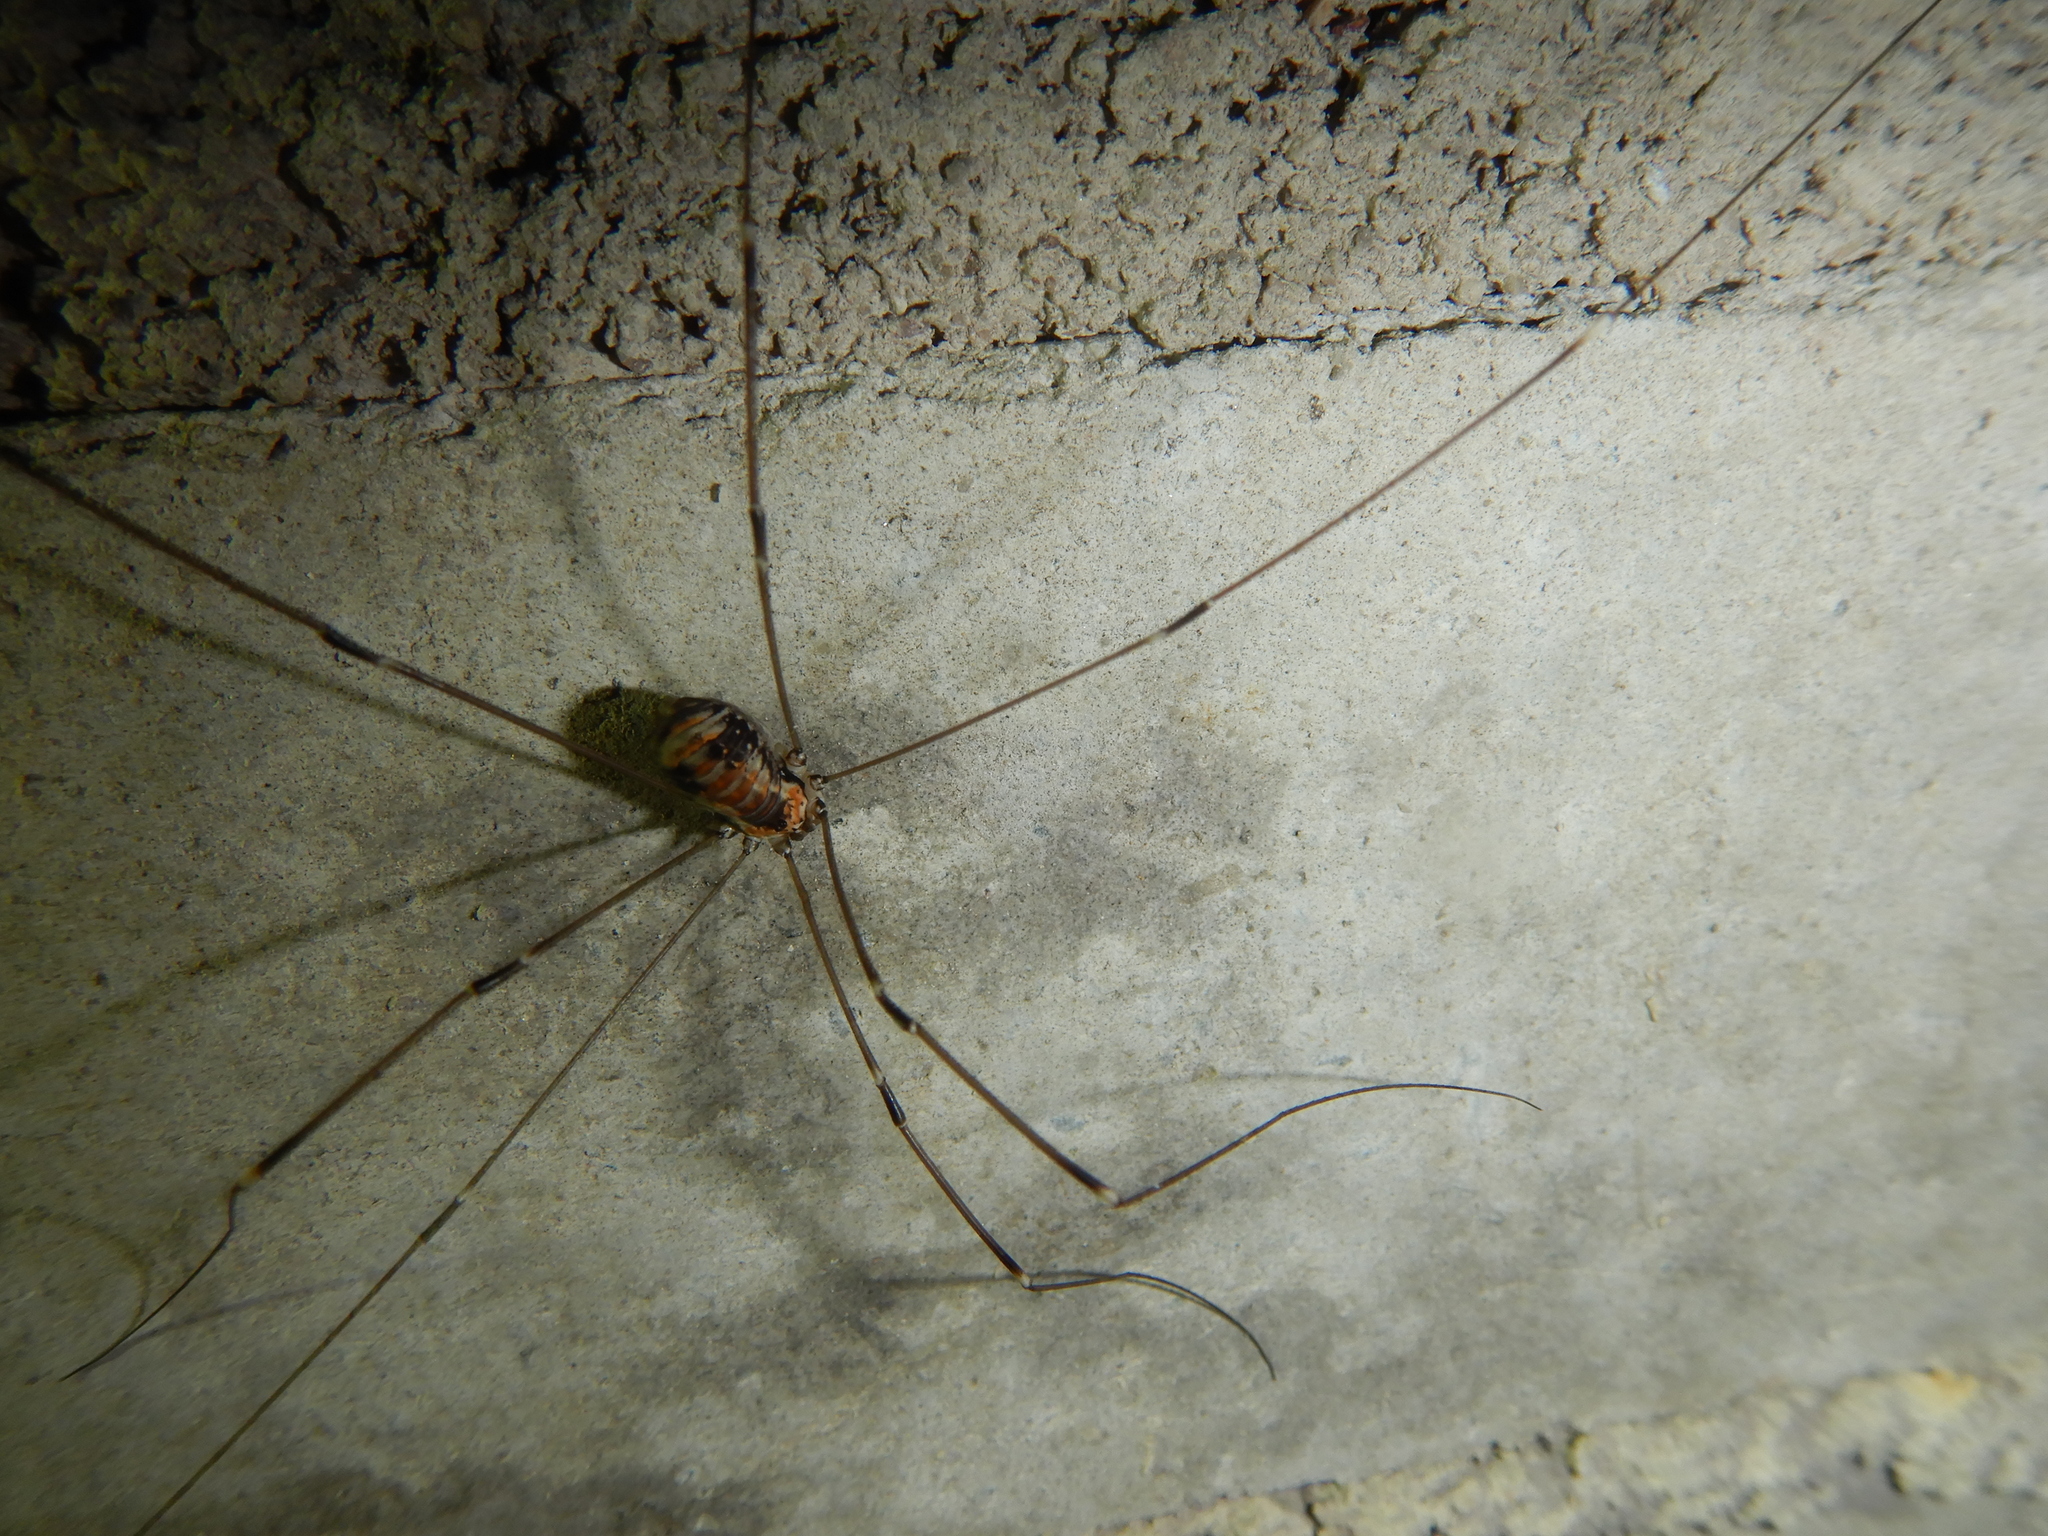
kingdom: Animalia
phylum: Arthropoda
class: Arachnida
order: Opiliones
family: Sclerosomatidae
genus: Leiobunum
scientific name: Leiobunum limbatum
